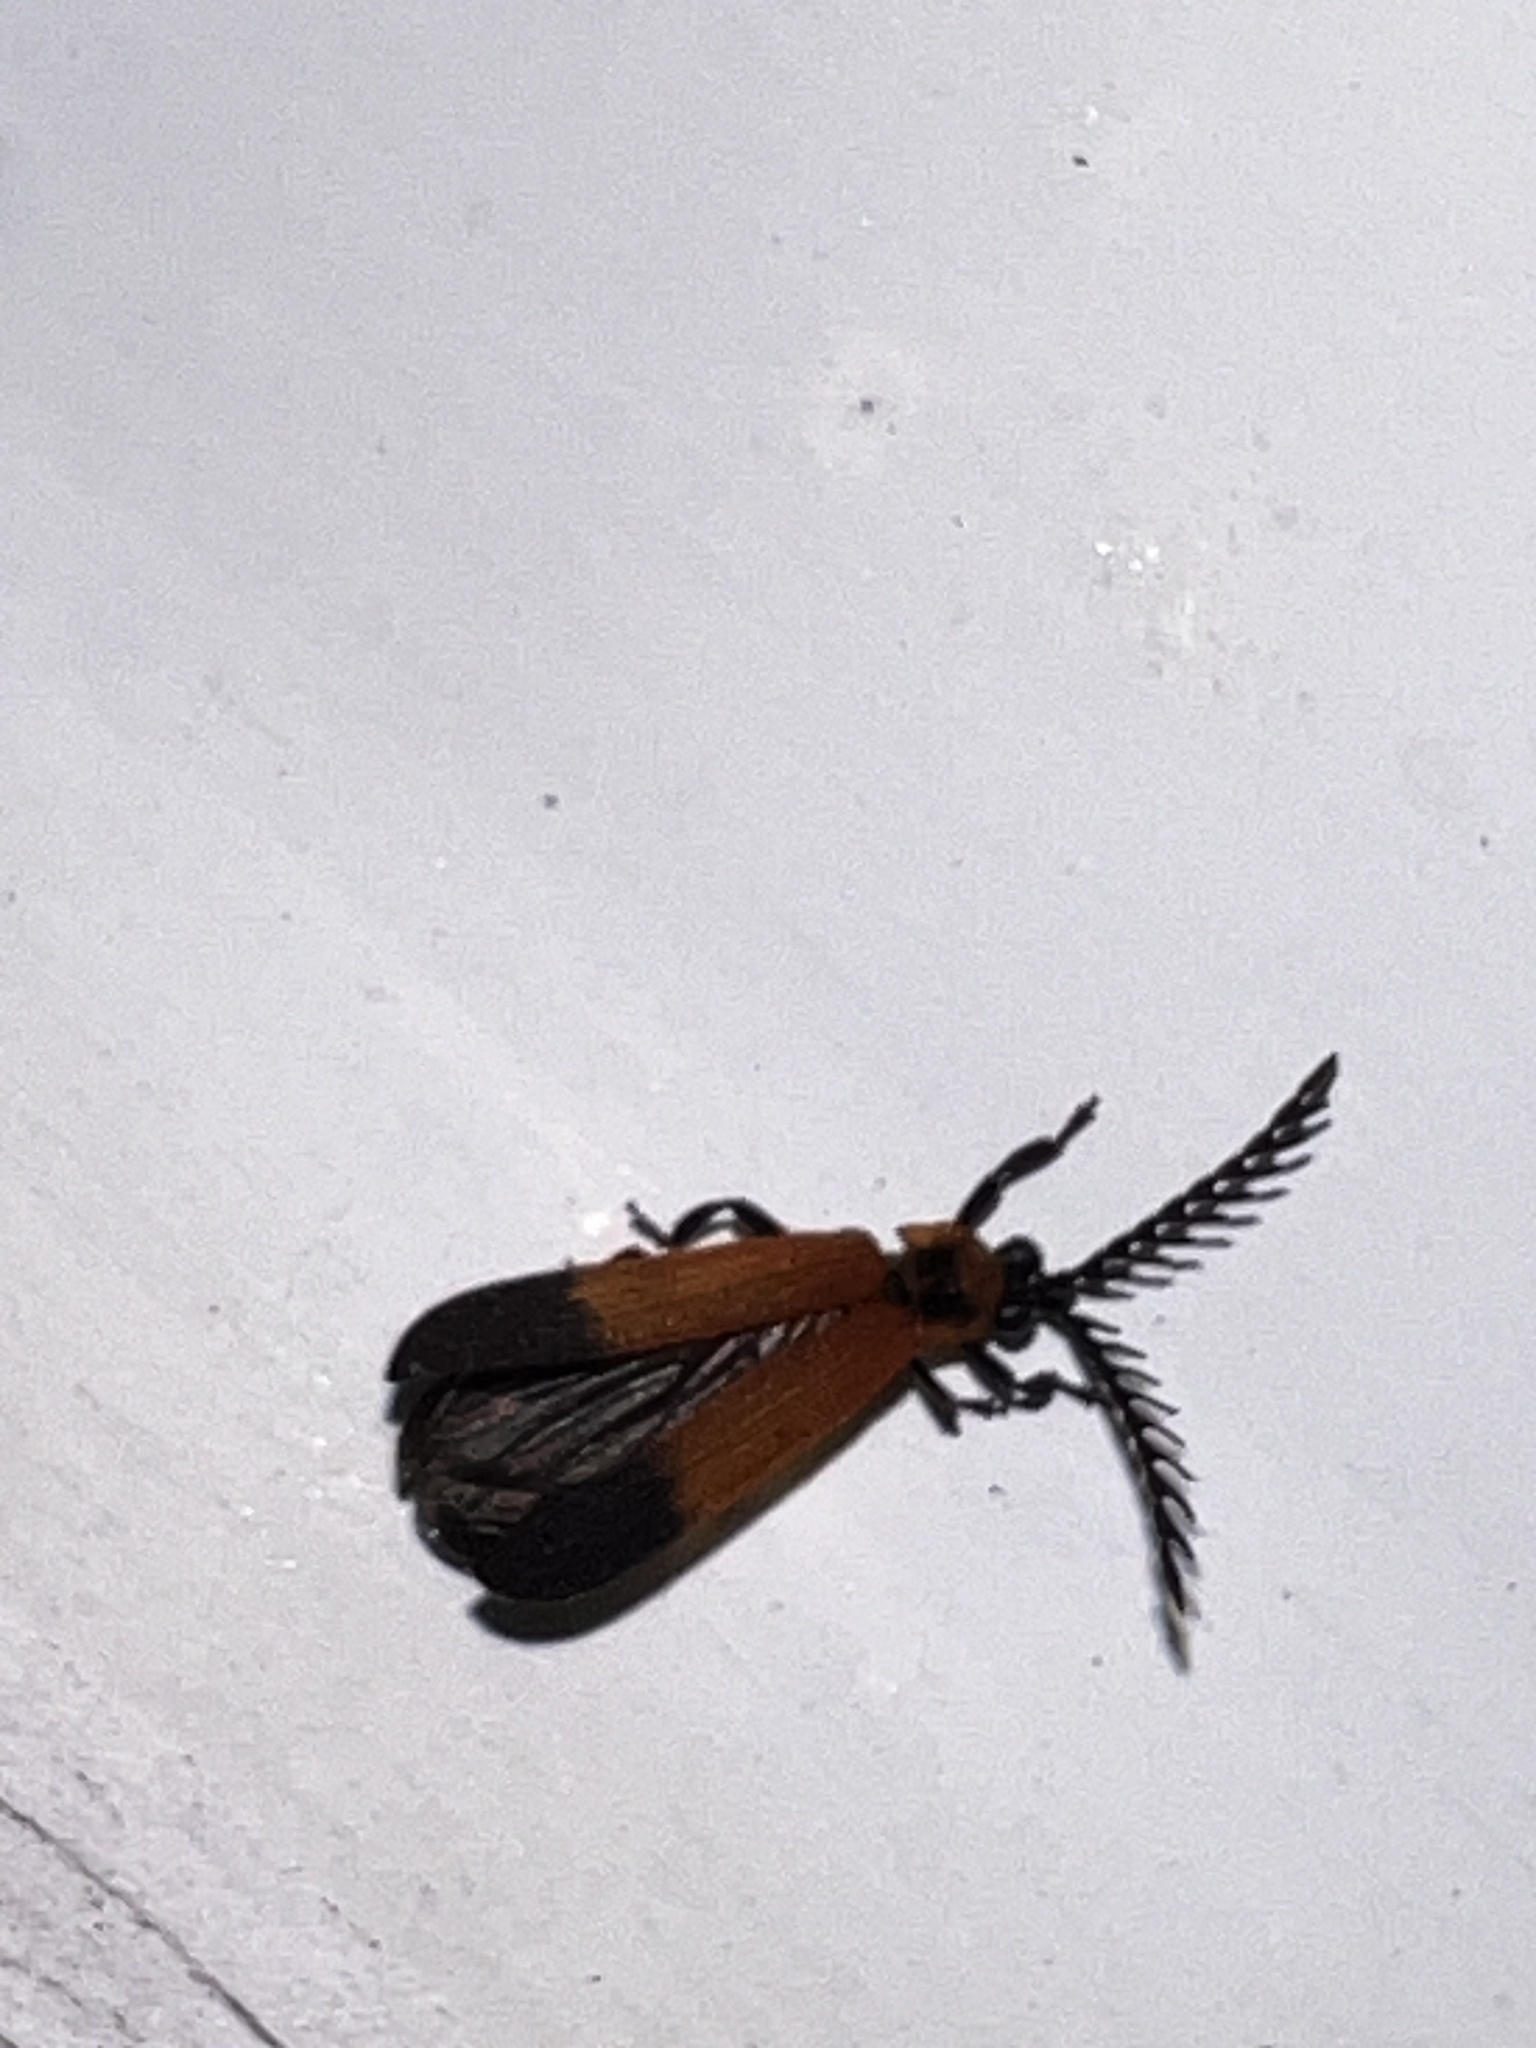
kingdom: Animalia
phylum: Arthropoda
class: Insecta
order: Coleoptera
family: Lycidae
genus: Cladophorus
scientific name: Cladophorus
